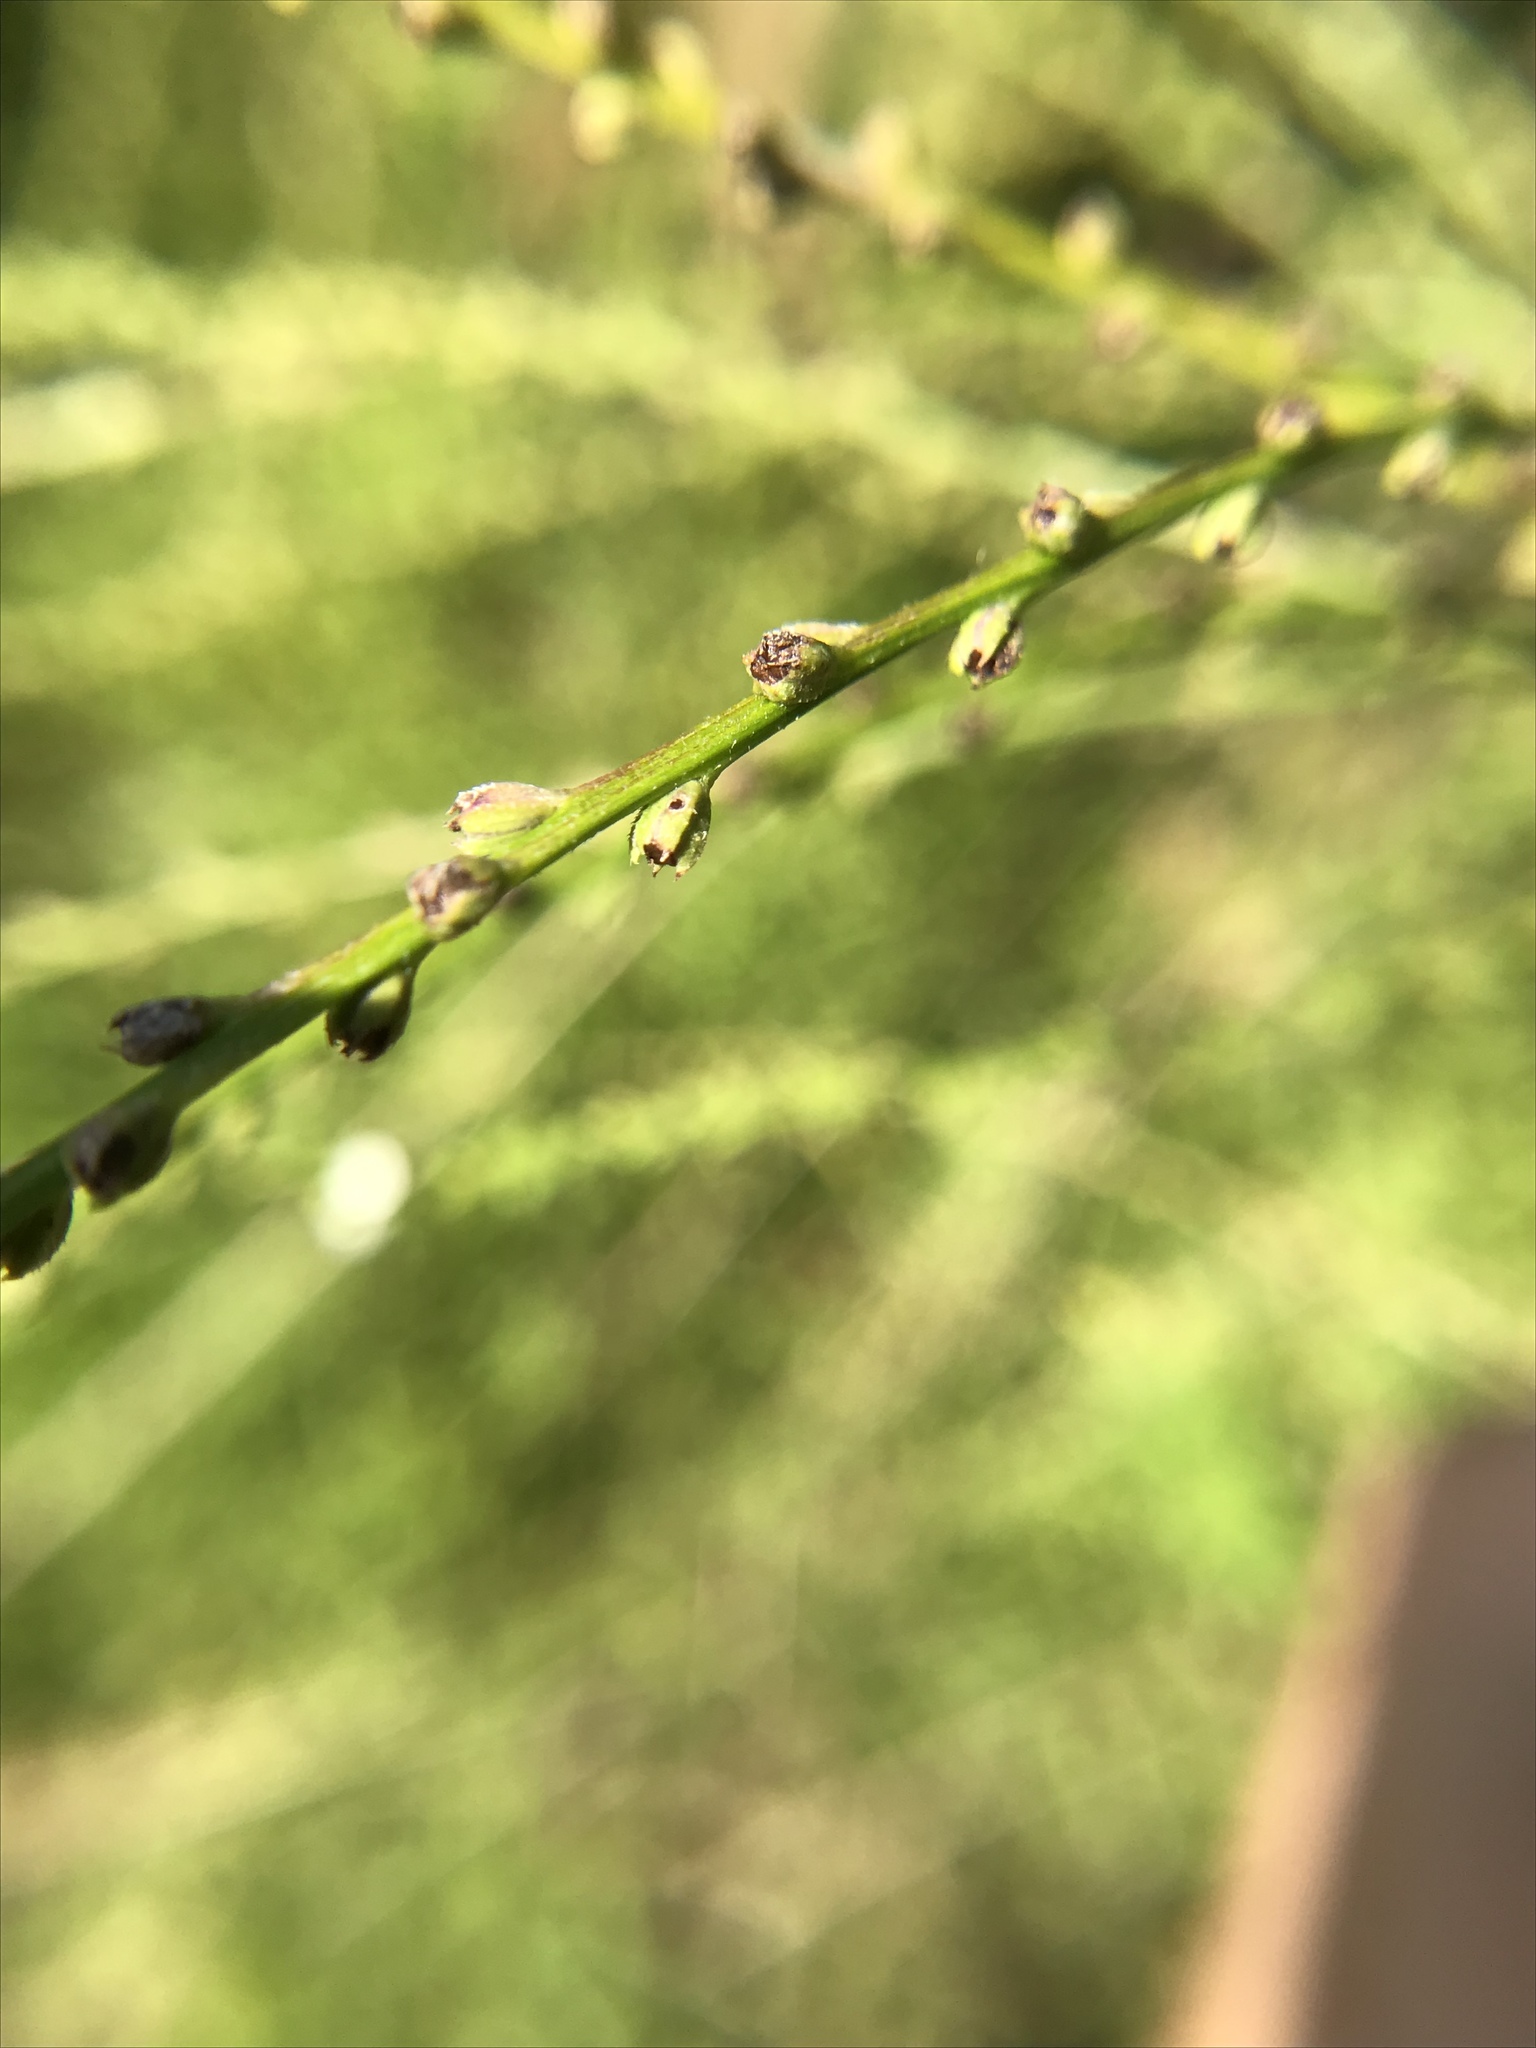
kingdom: Plantae
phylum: Tracheophyta
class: Magnoliopsida
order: Lamiales
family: Verbenaceae
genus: Verbena
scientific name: Verbena urticifolia
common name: Nettle-leaved vervain
